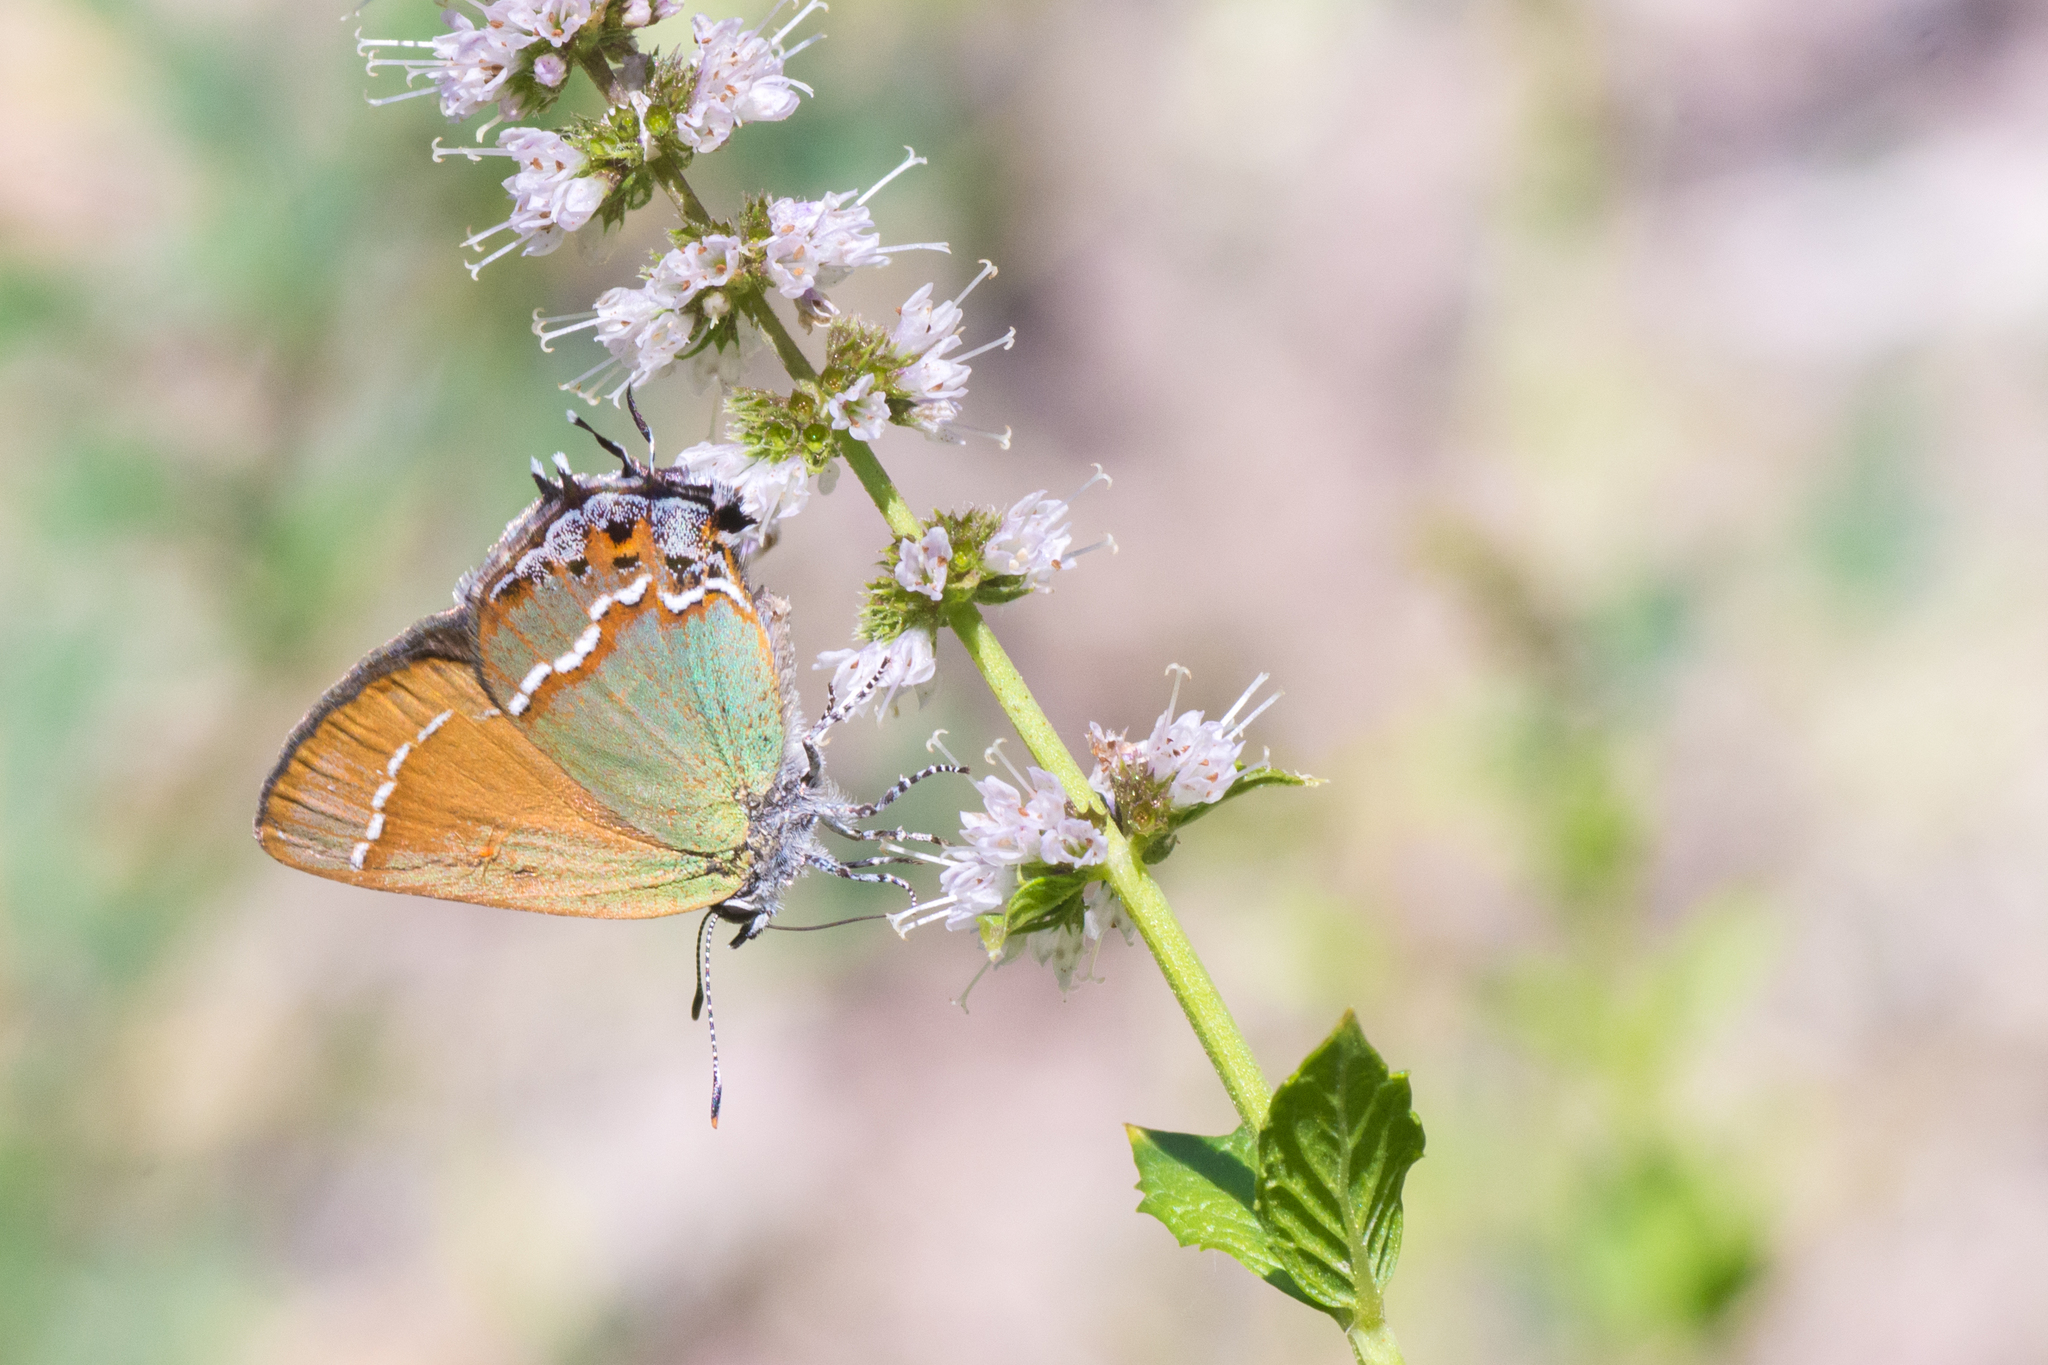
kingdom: Animalia
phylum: Arthropoda
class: Insecta
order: Lepidoptera
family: Lycaenidae
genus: Mitoura
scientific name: Mitoura siva
